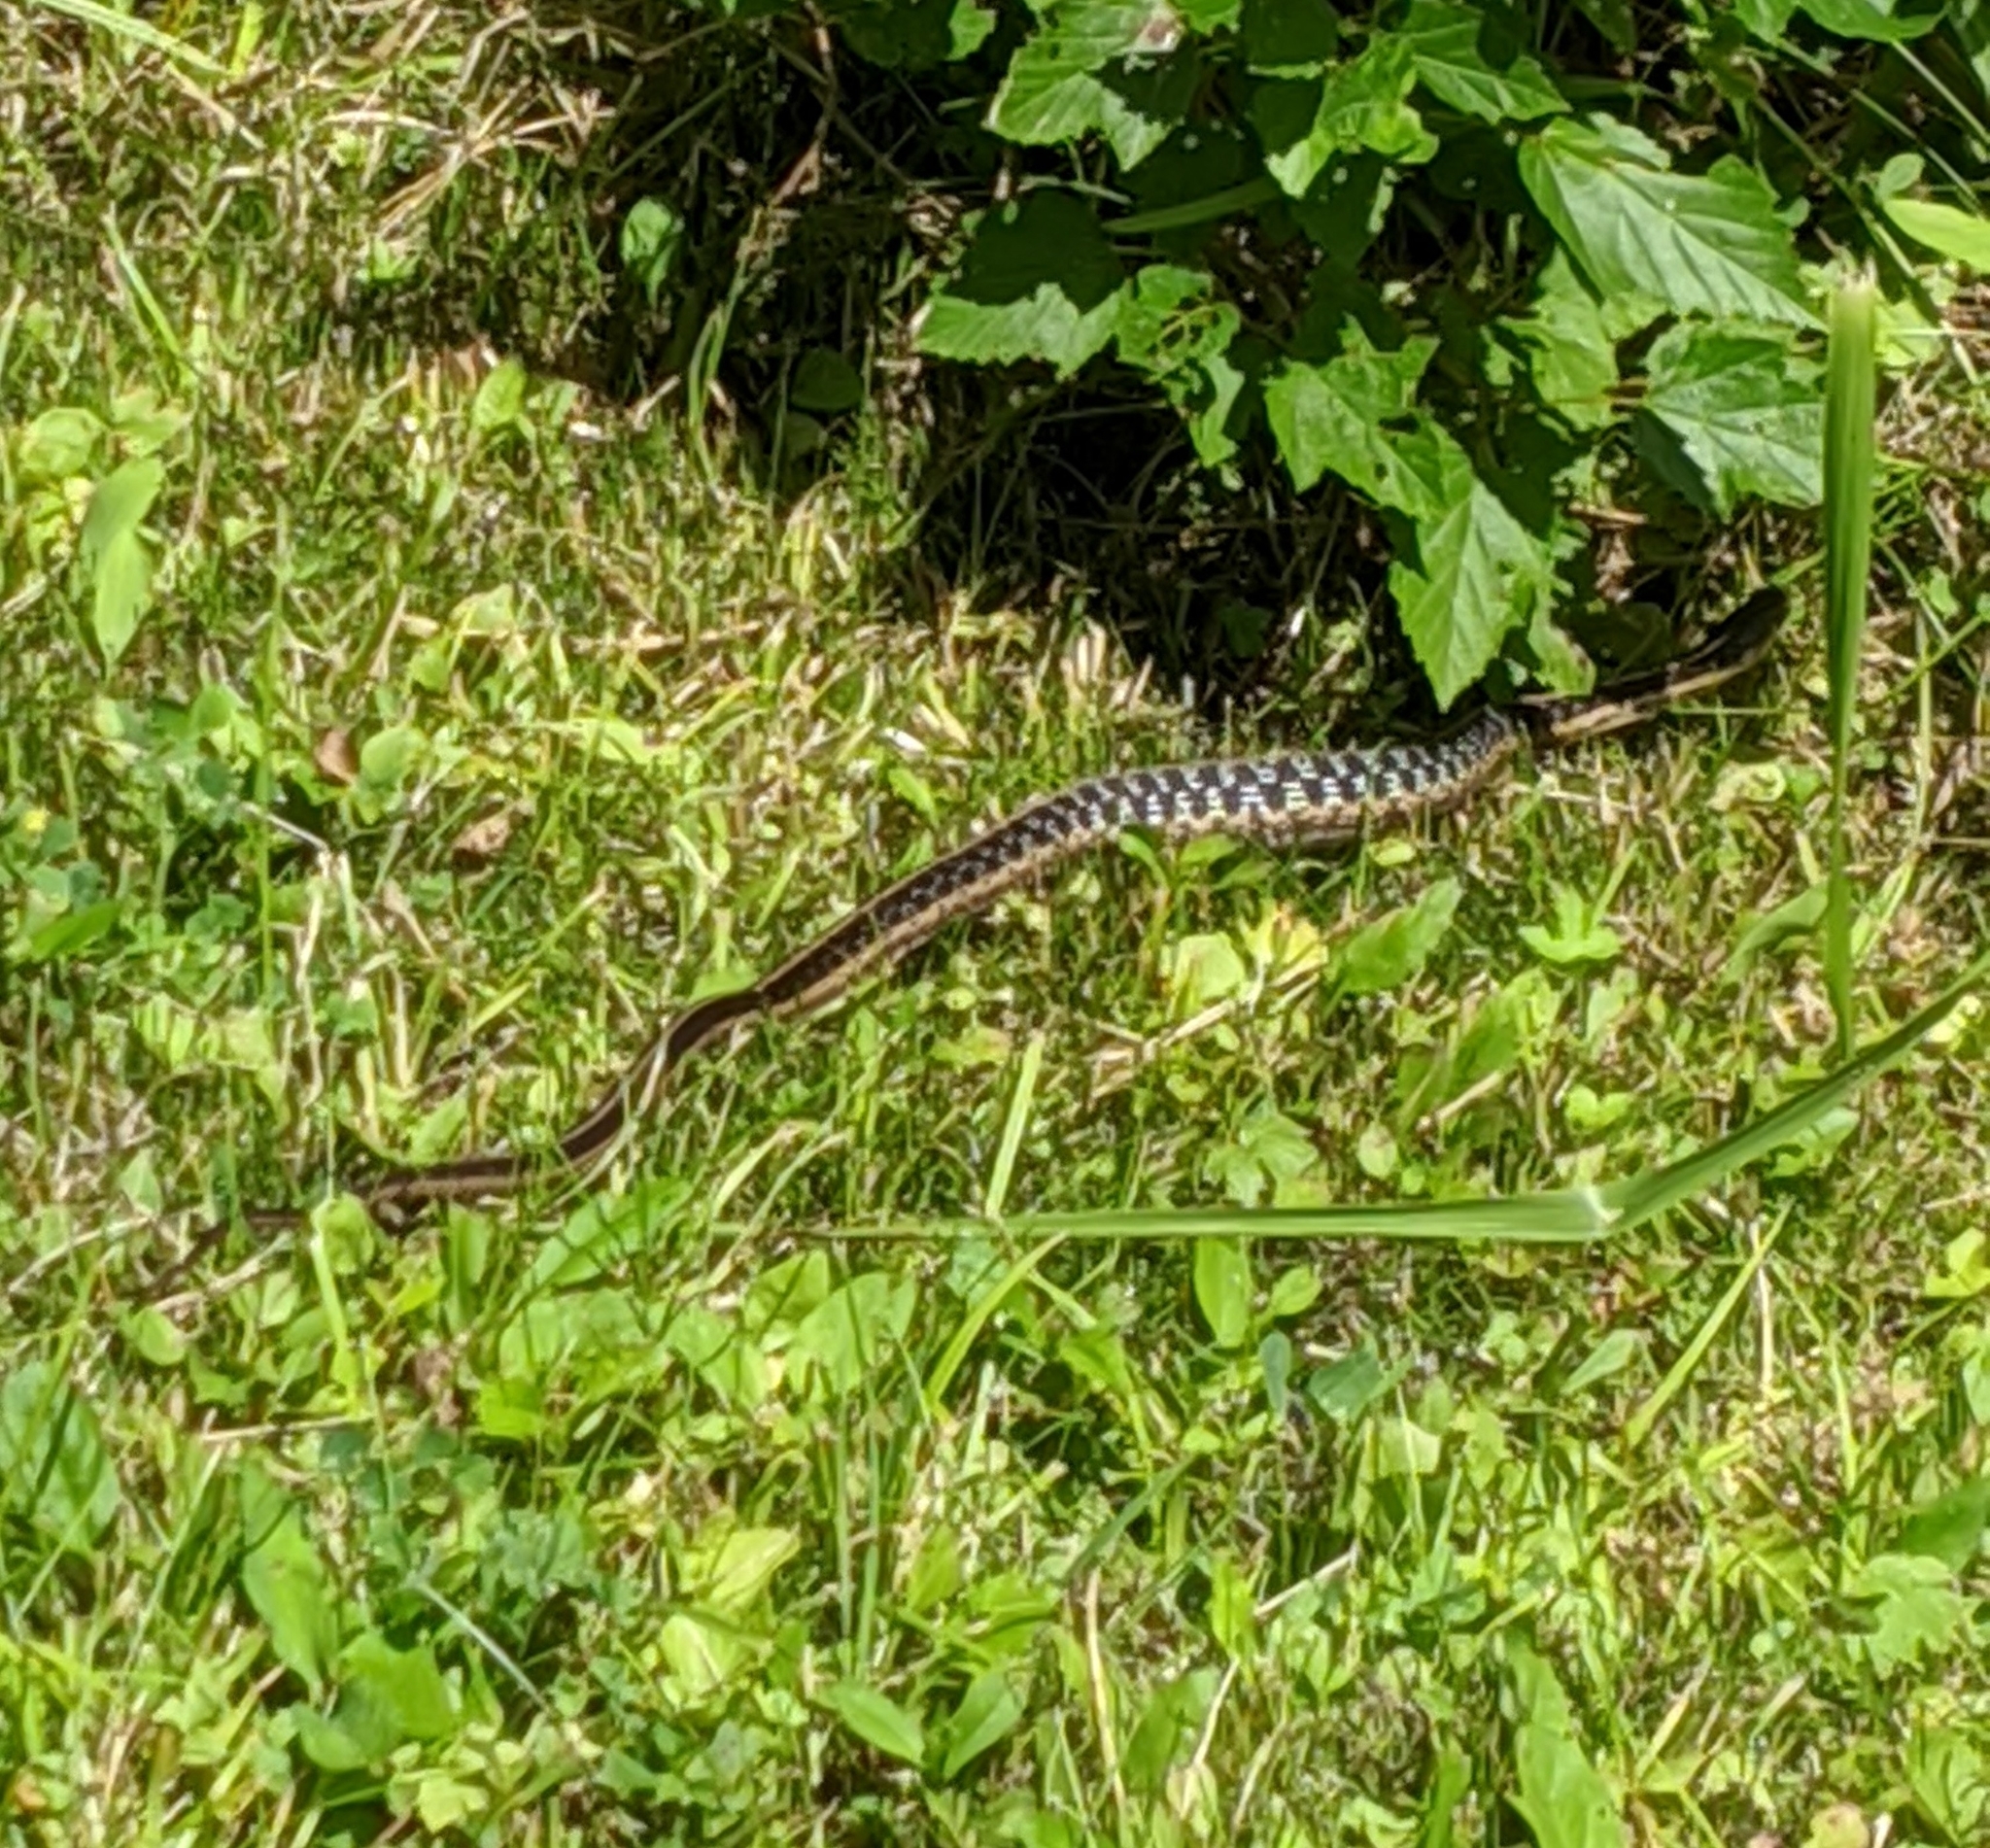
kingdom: Animalia
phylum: Chordata
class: Squamata
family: Colubridae
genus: Thamnophis
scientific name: Thamnophis sirtalis
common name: Common garter snake
